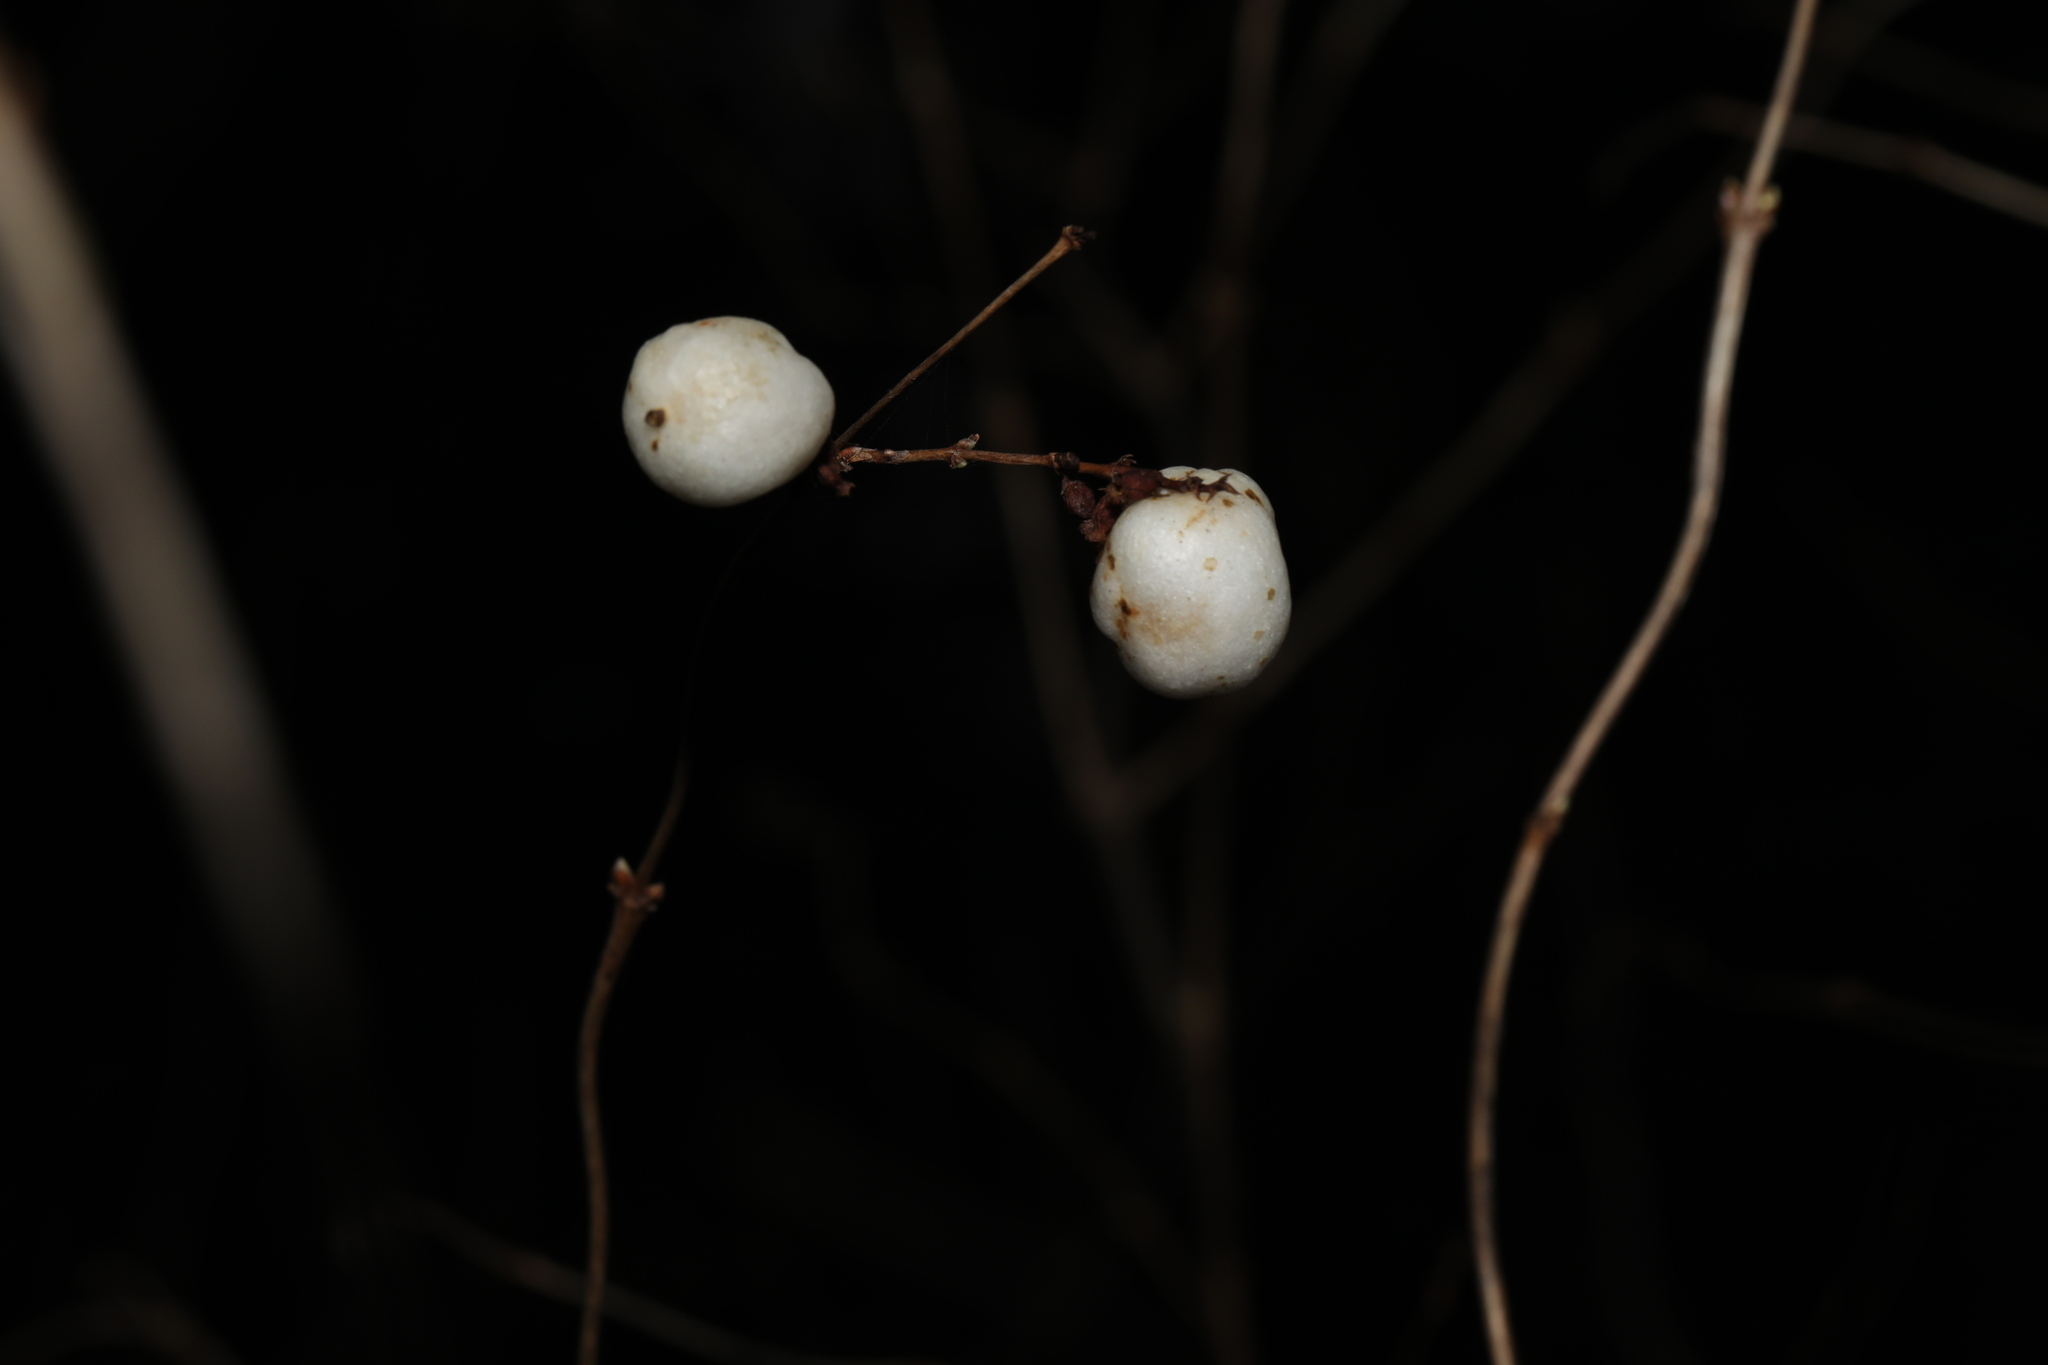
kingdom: Plantae
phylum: Tracheophyta
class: Magnoliopsida
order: Dipsacales
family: Caprifoliaceae
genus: Symphoricarpos
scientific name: Symphoricarpos albus
